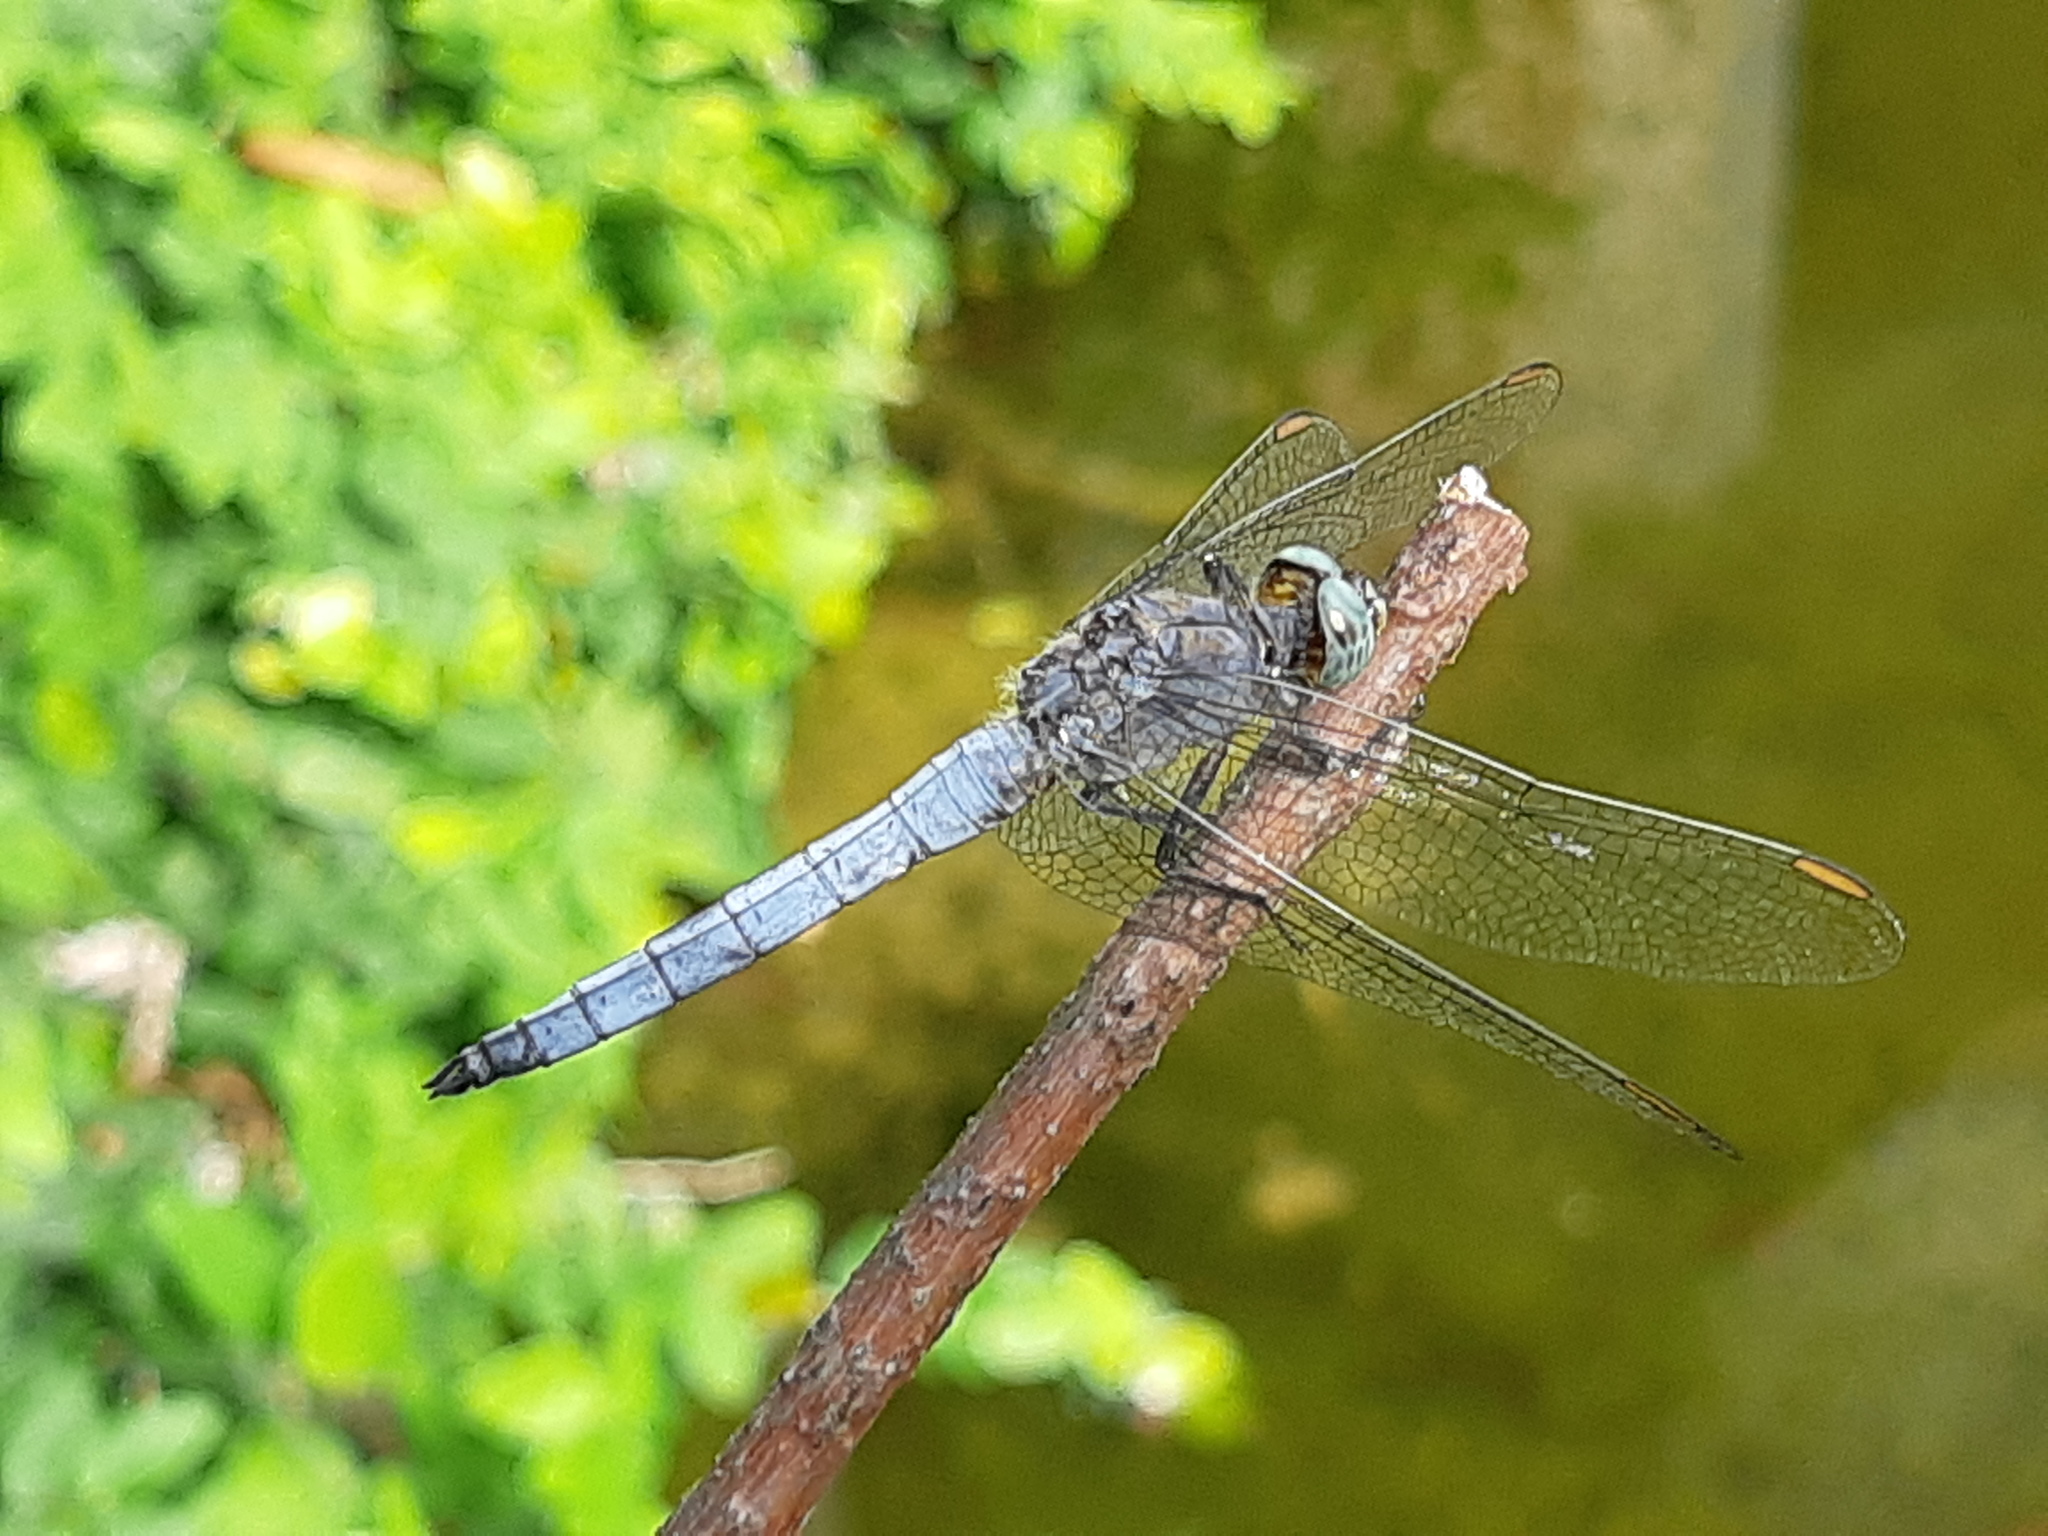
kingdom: Animalia
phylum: Arthropoda
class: Insecta
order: Odonata
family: Libellulidae
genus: Orthetrum
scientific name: Orthetrum coerulescens
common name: Keeled skimmer
